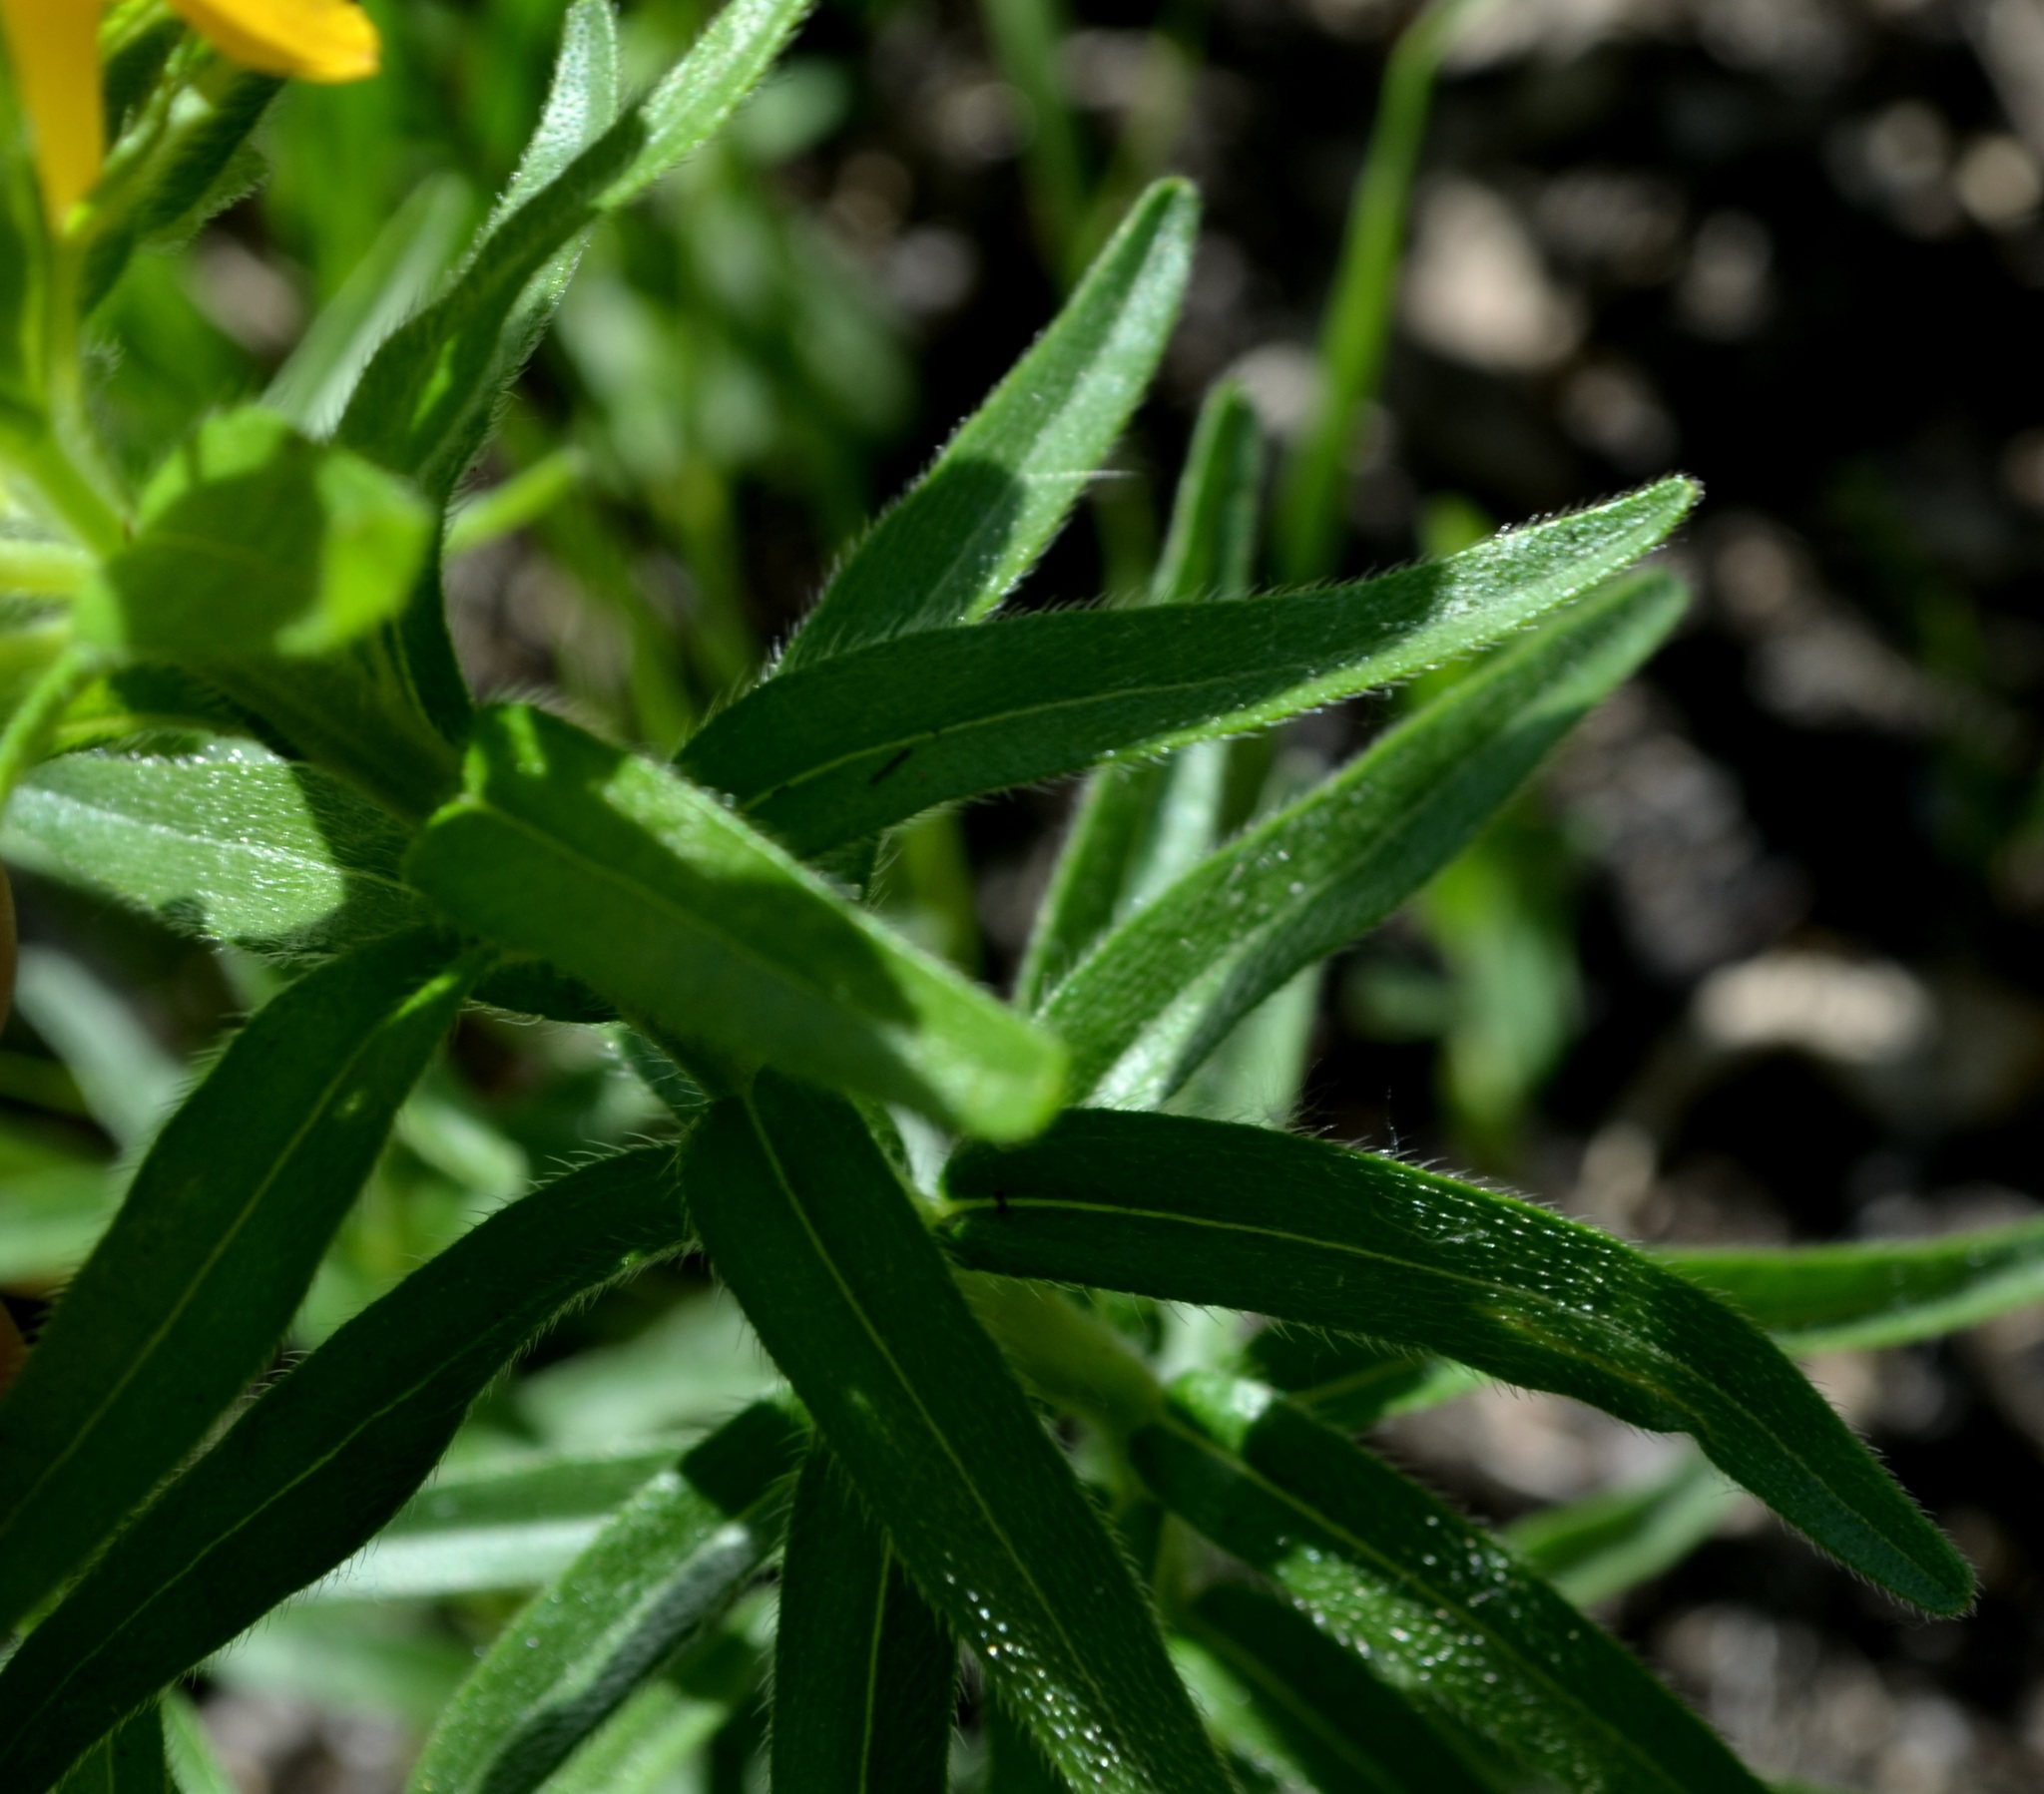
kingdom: Plantae
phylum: Tracheophyta
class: Magnoliopsida
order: Boraginales
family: Boraginaceae
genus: Lithospermum
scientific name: Lithospermum caroliniense
